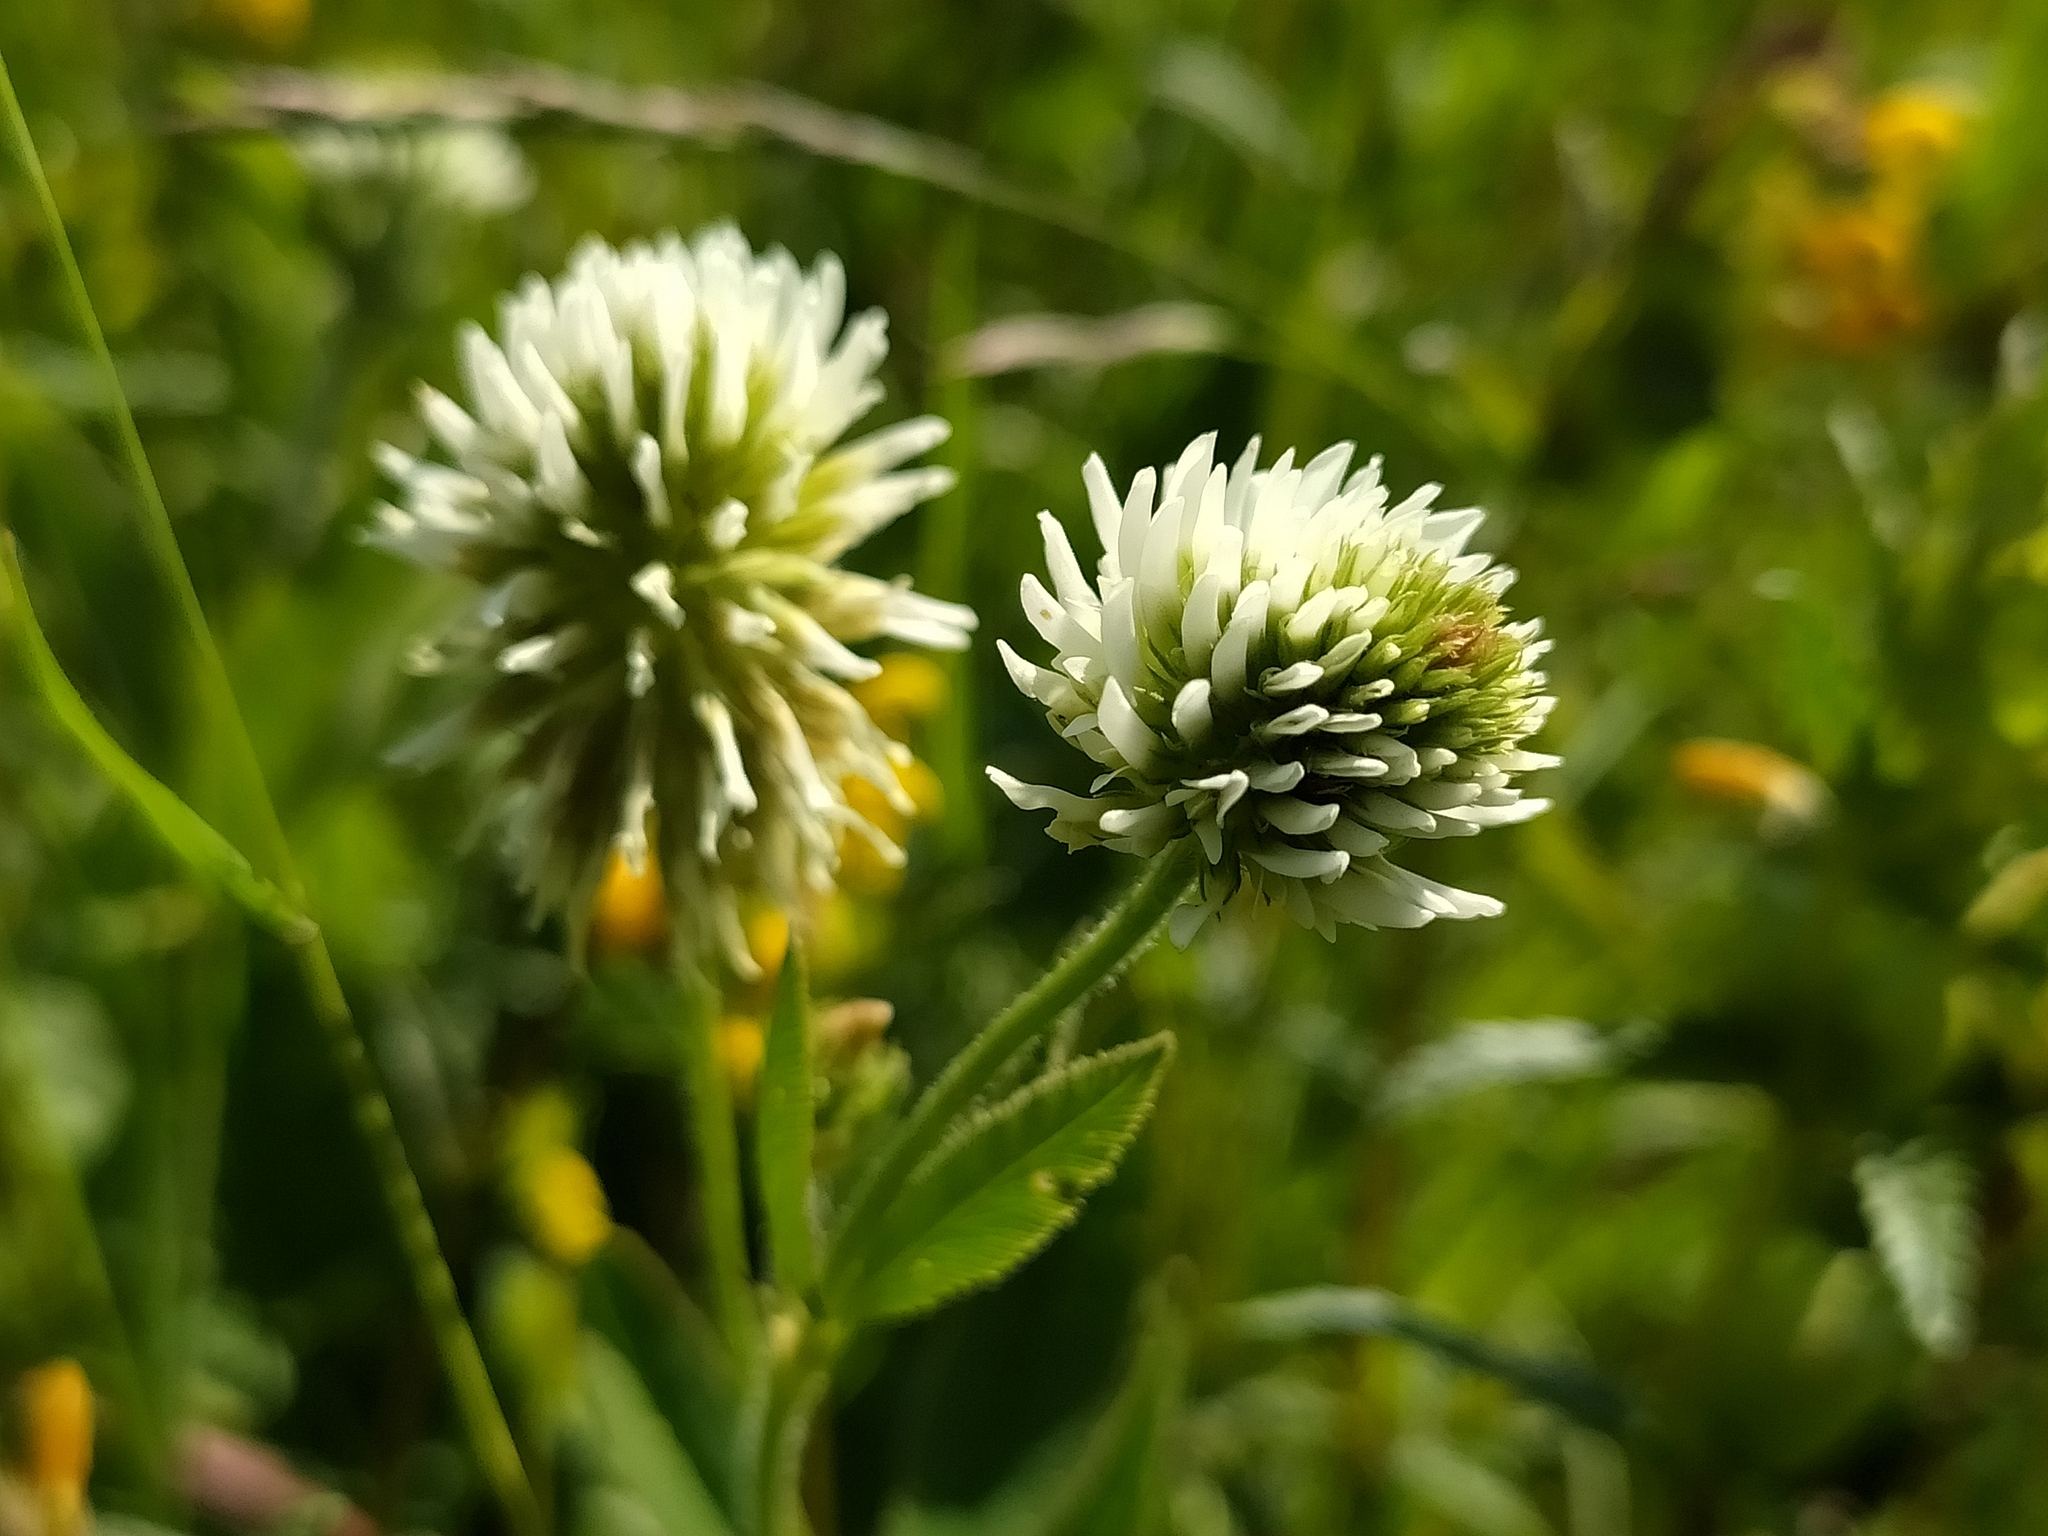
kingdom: Plantae
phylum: Tracheophyta
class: Magnoliopsida
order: Fabales
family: Fabaceae
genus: Trifolium
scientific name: Trifolium montanum
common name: Mountain clover
